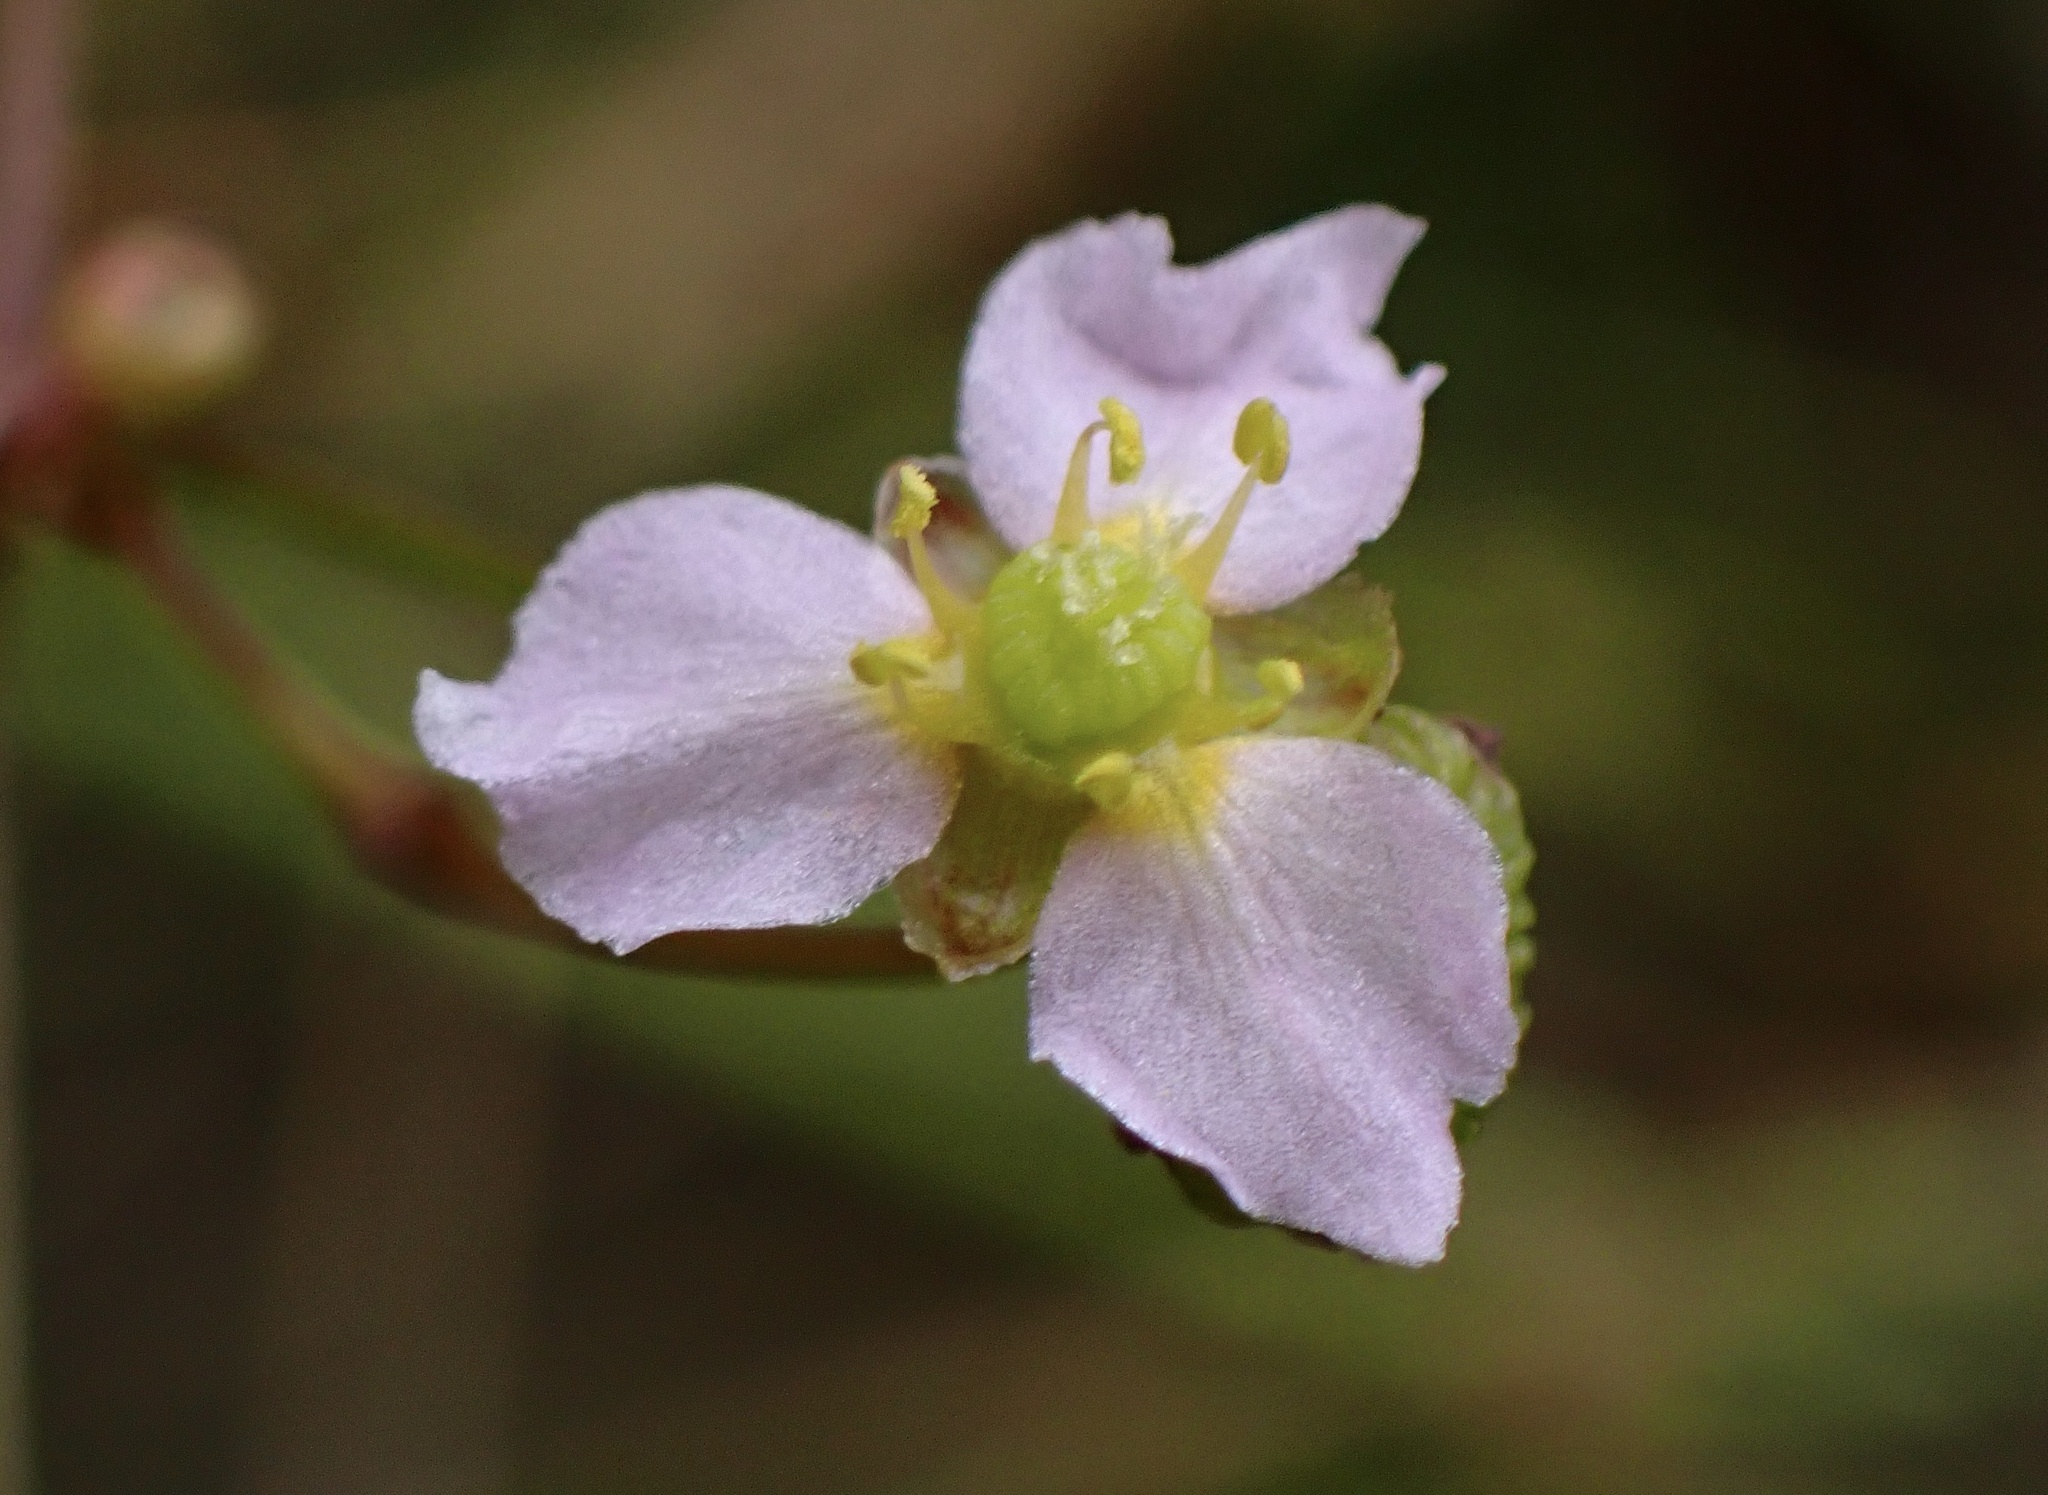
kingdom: Plantae
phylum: Tracheophyta
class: Liliopsida
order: Alismatales
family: Alismataceae
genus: Alisma
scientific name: Alisma lanceolatum
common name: Narrow-leaved water-plantain
